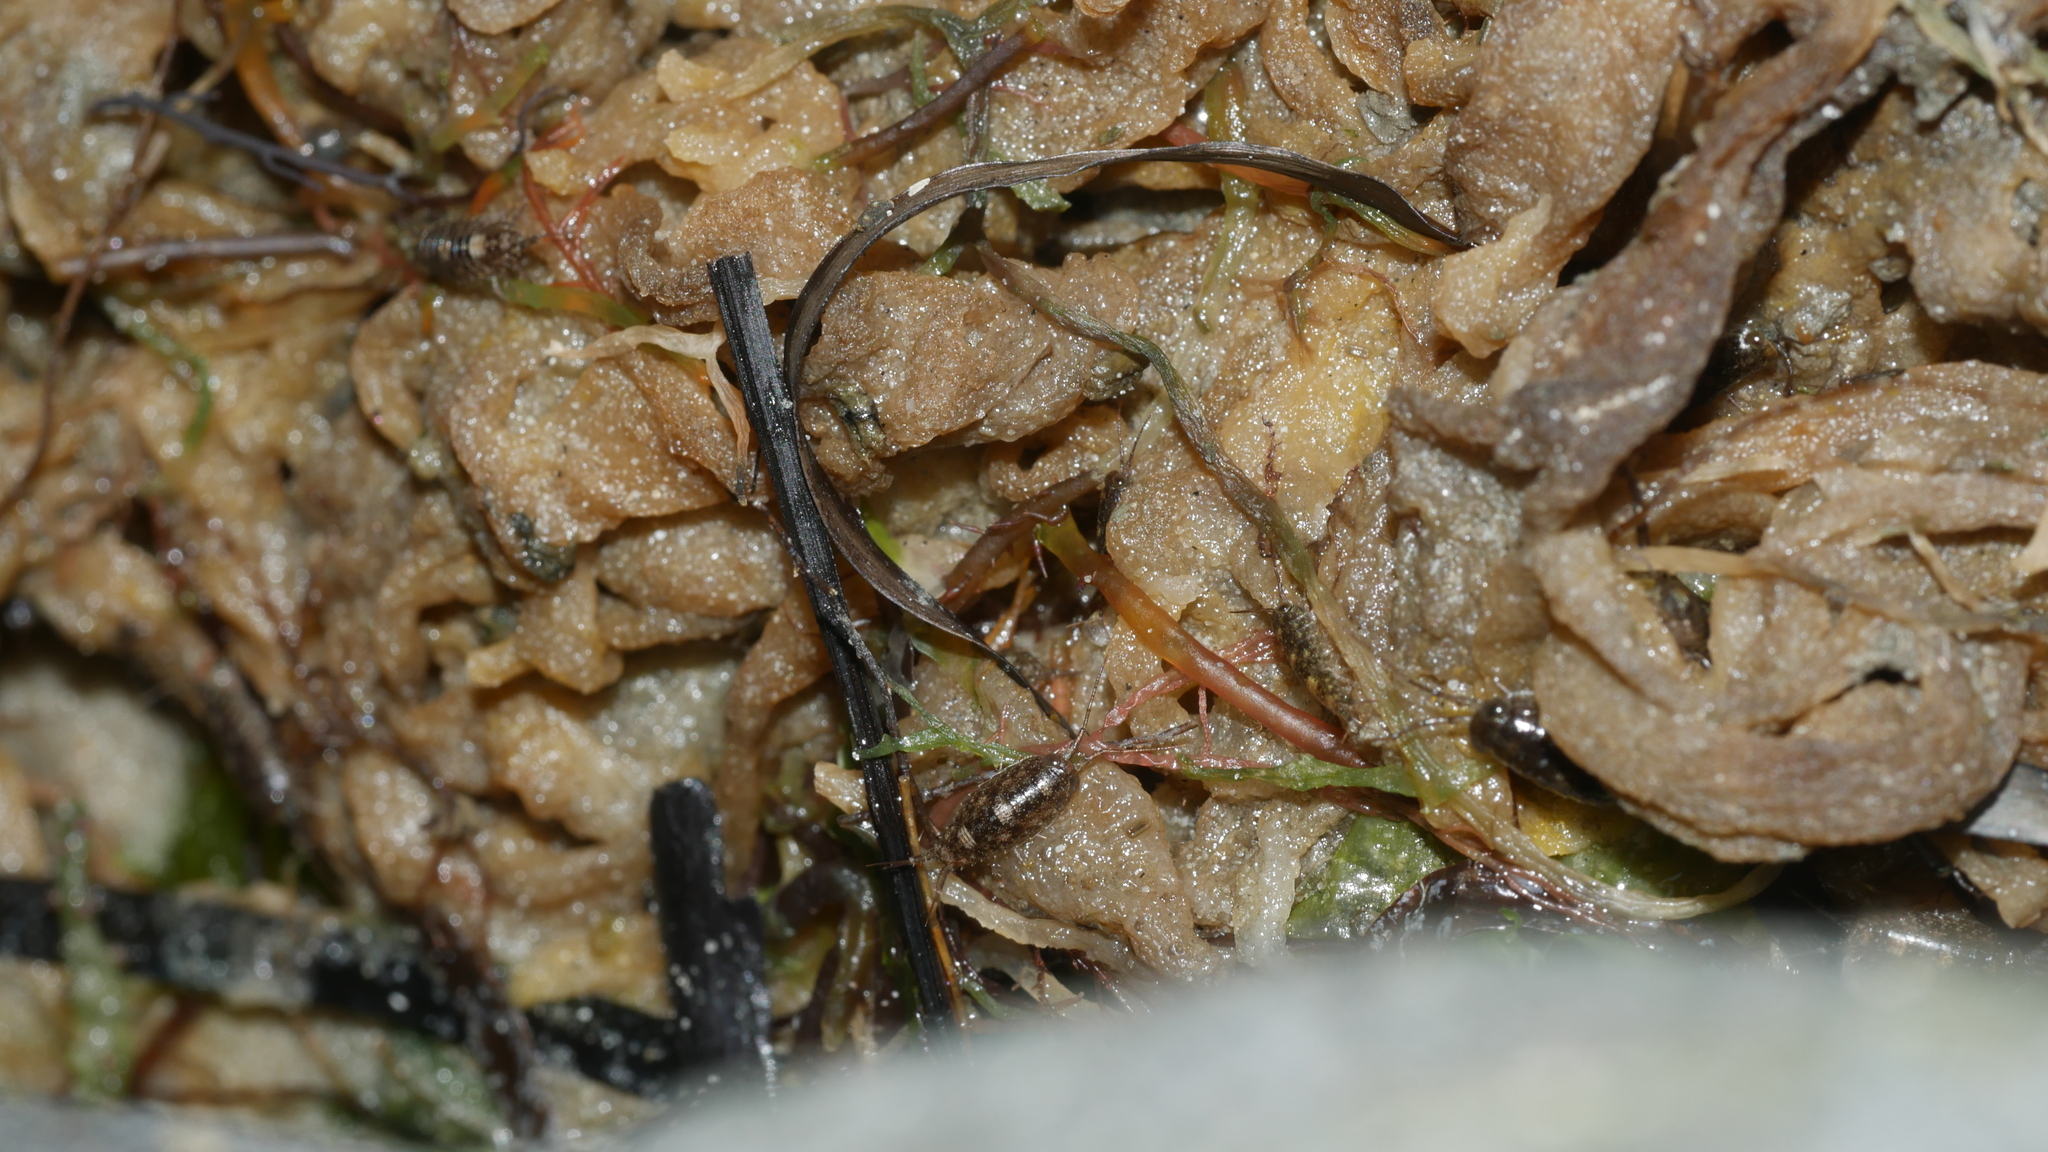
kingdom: Animalia
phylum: Arthropoda
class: Malacostraca
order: Isopoda
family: Ligiidae
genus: Ligia
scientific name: Ligia exotica
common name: Wharf roach
